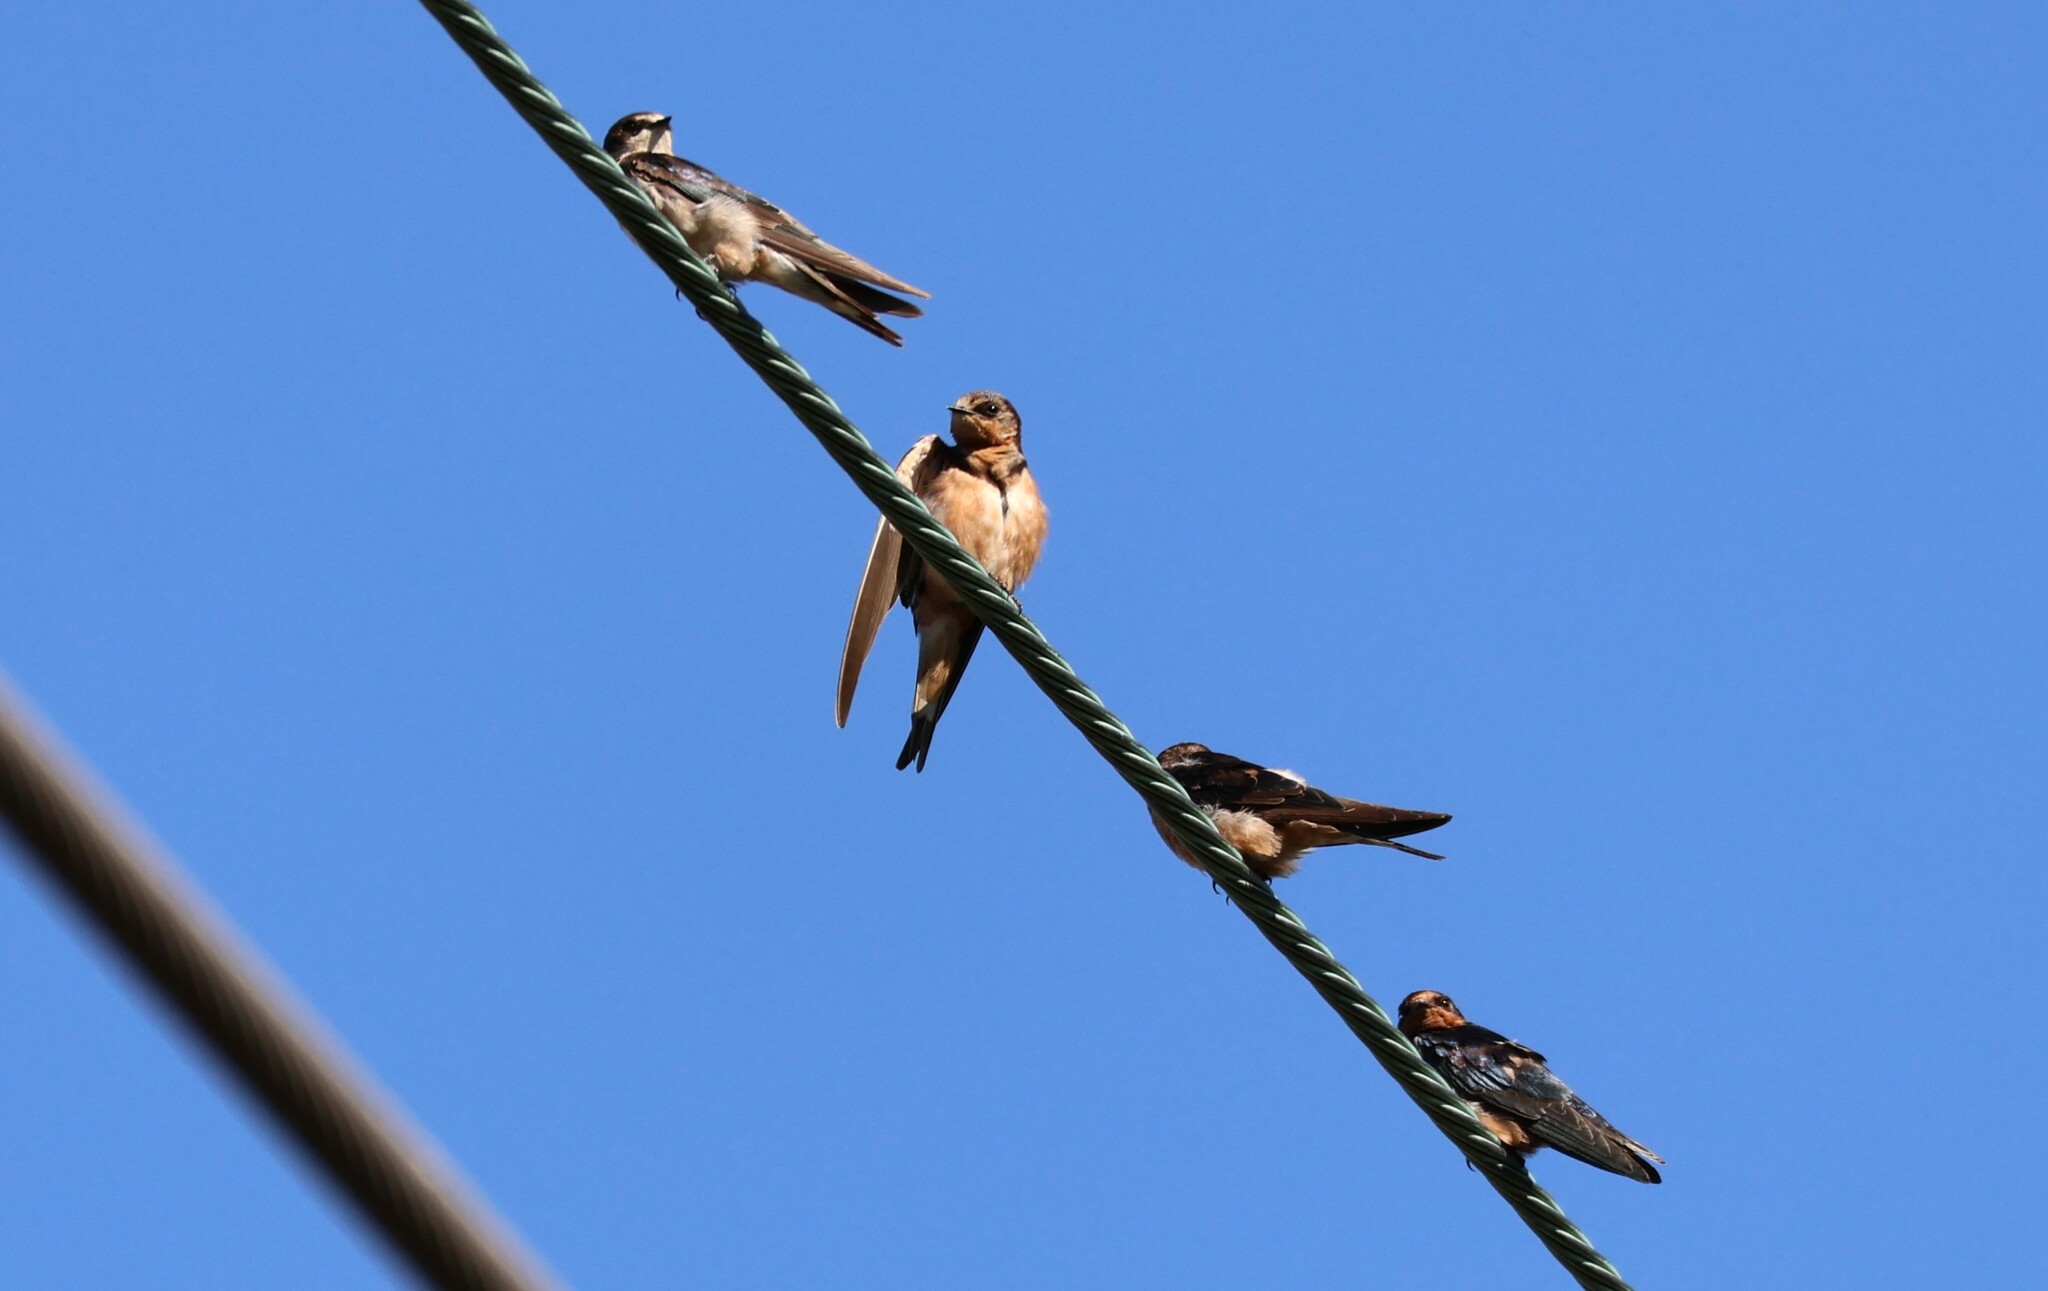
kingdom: Animalia
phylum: Chordata
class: Aves
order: Passeriformes
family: Hirundinidae
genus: Hirundo
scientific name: Hirundo rustica
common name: Barn swallow
